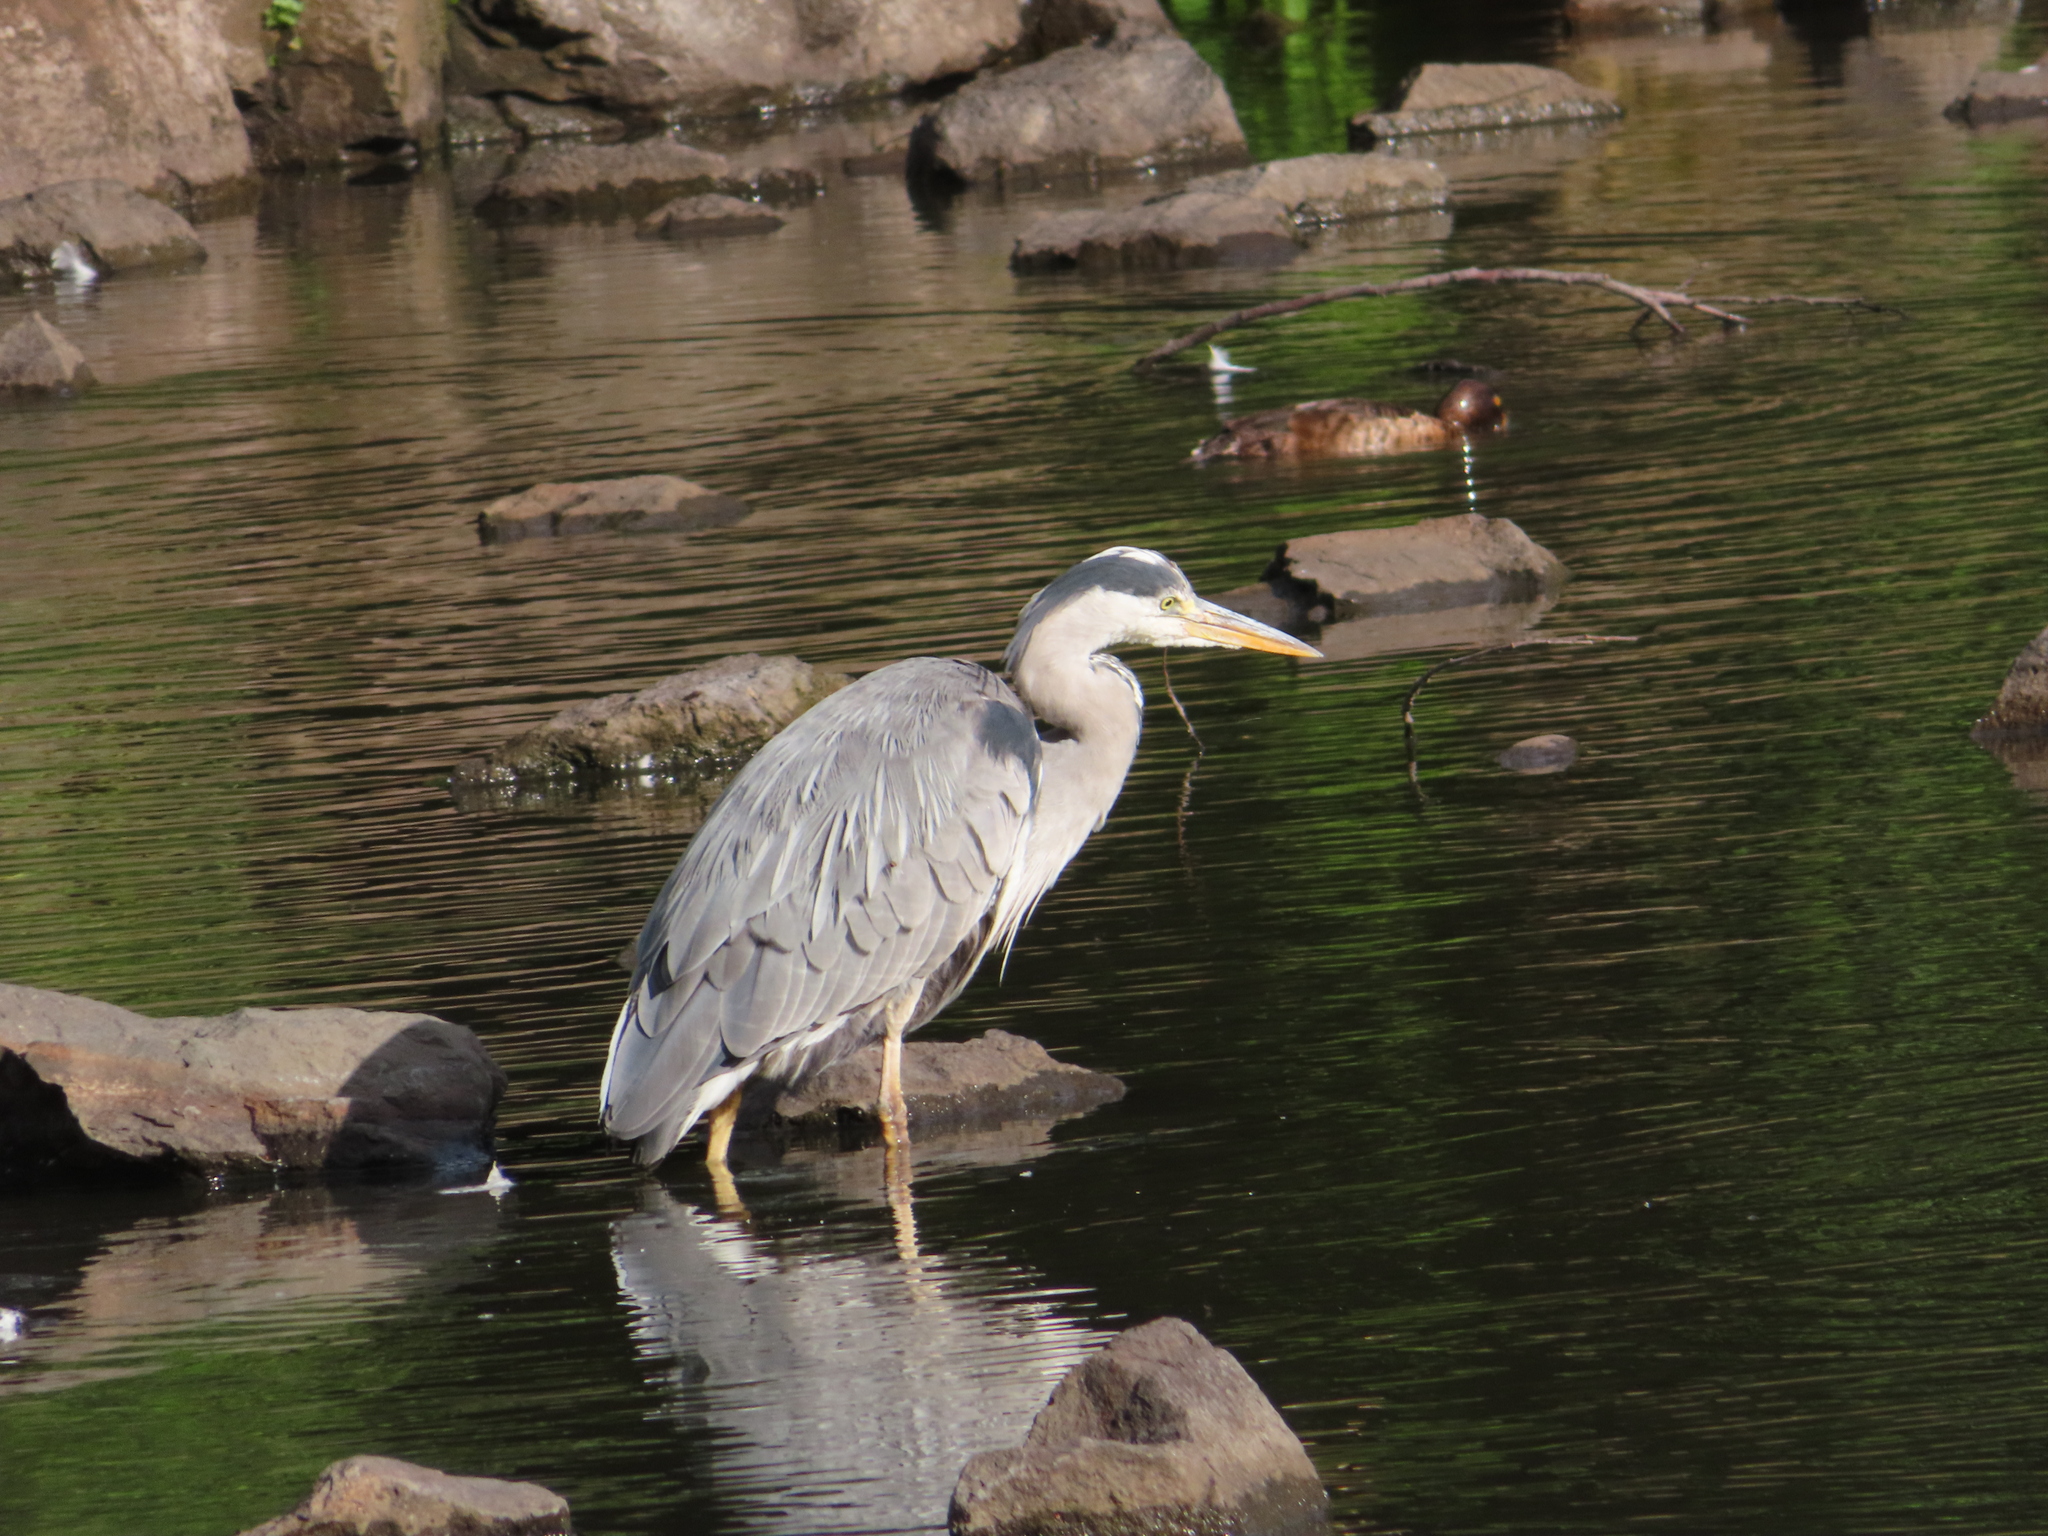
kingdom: Animalia
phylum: Chordata
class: Aves
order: Pelecaniformes
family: Ardeidae
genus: Ardea
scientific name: Ardea cinerea
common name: Grey heron
